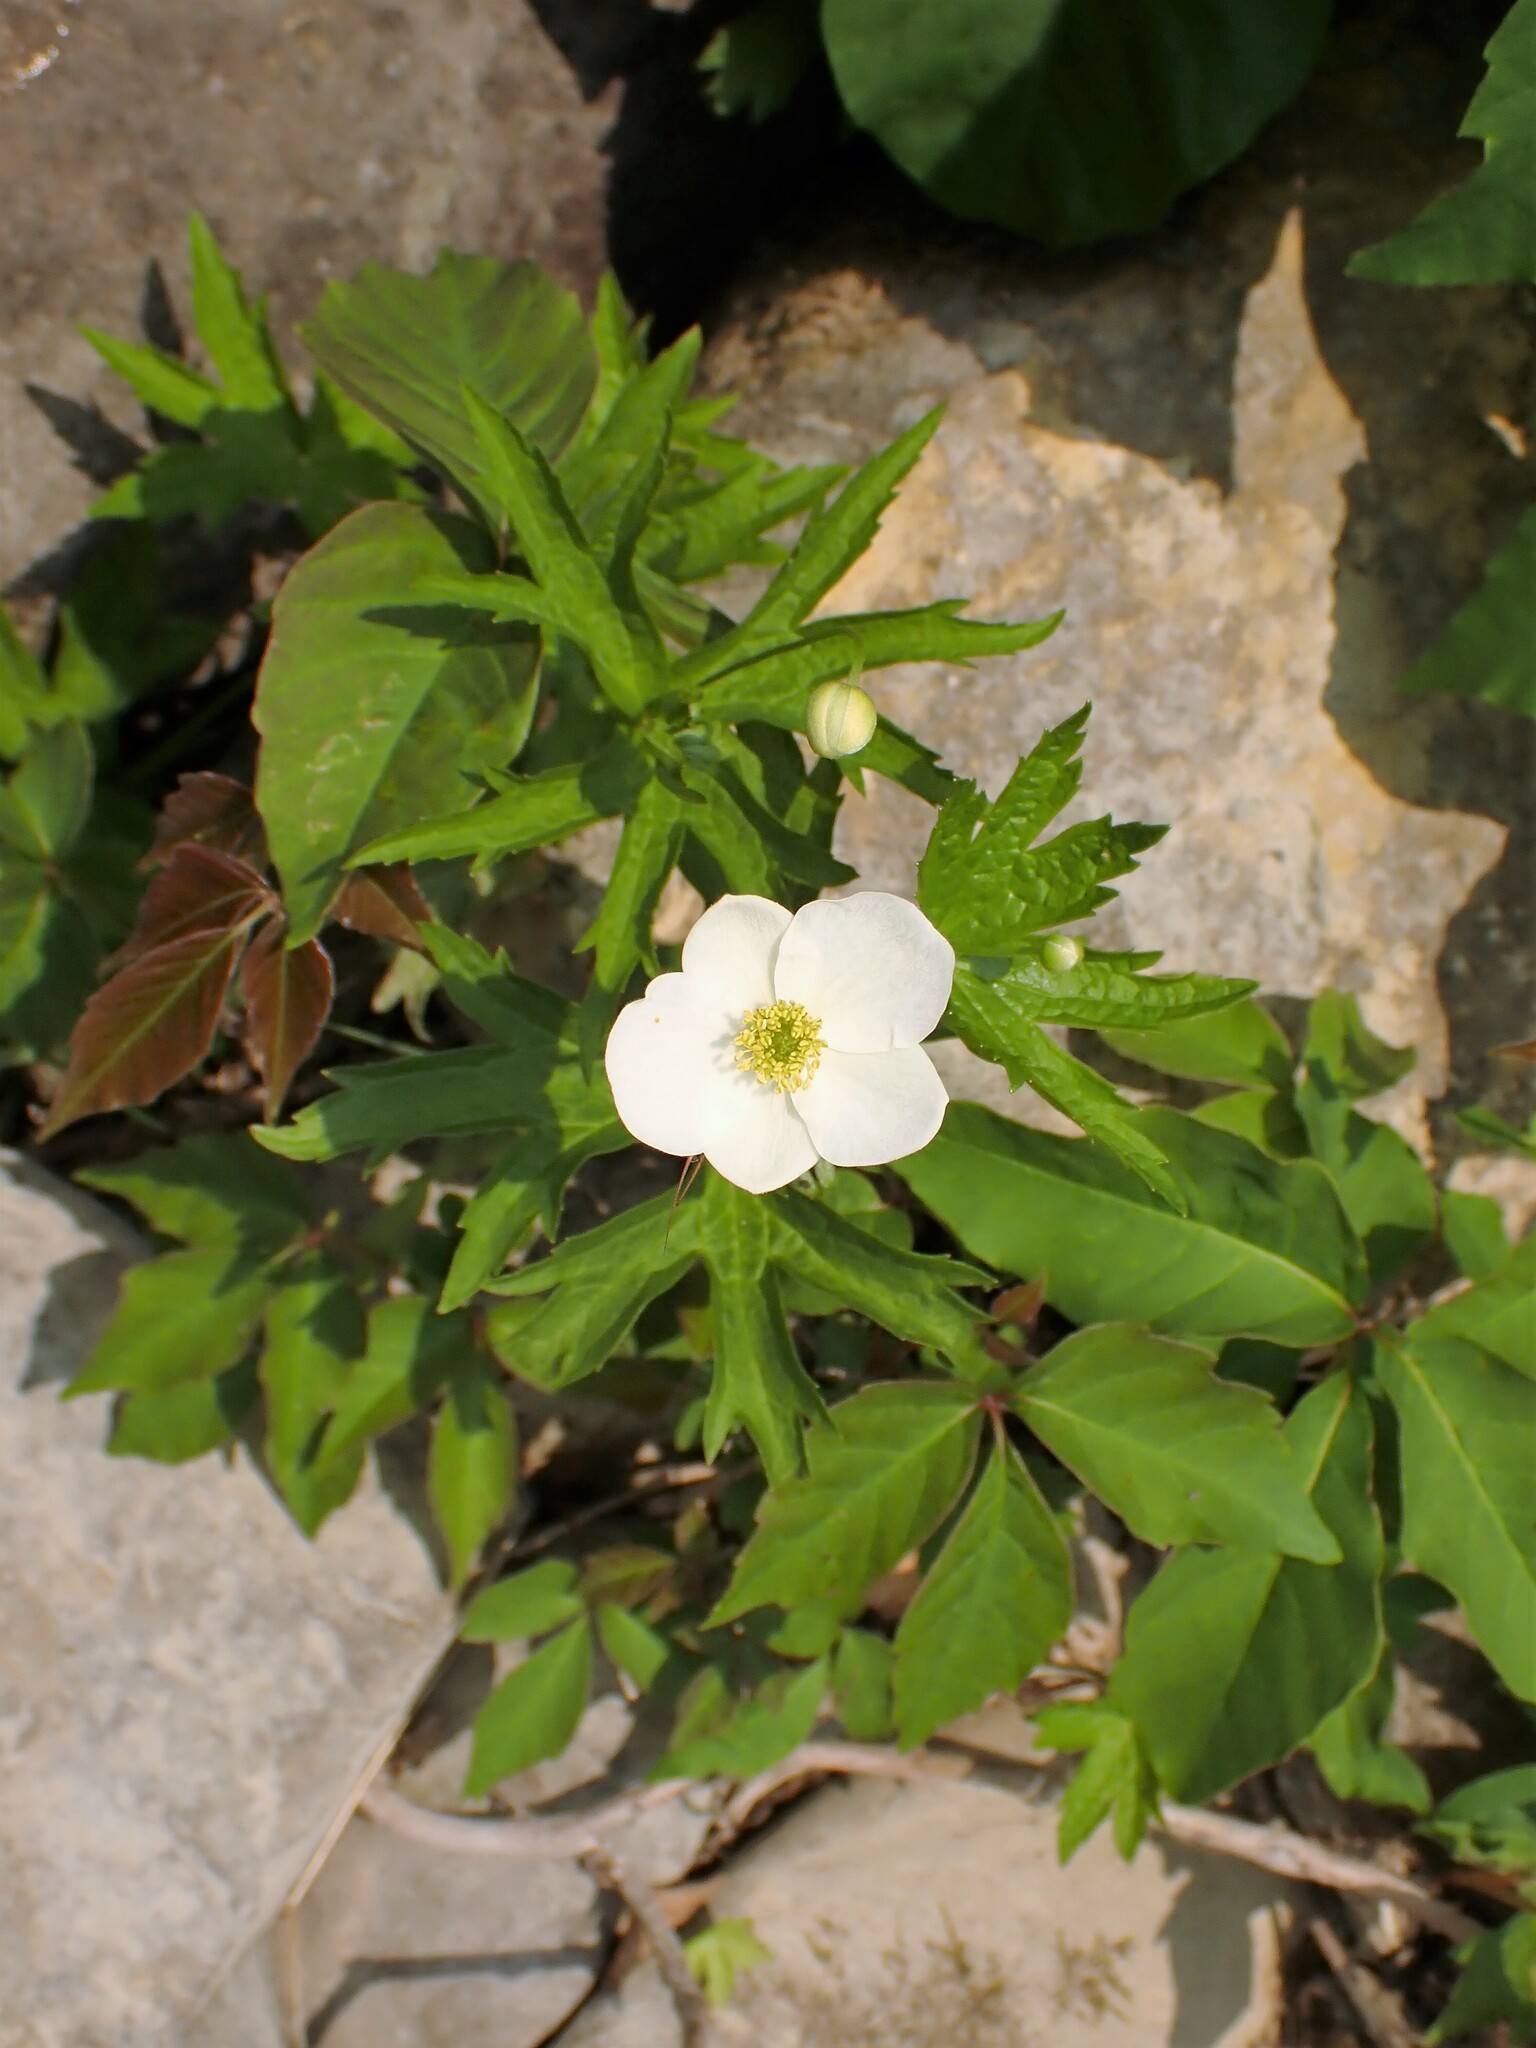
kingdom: Plantae
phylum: Tracheophyta
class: Magnoliopsida
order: Ranunculales
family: Ranunculaceae
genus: Anemonastrum
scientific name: Anemonastrum canadense
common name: Canada anemone
